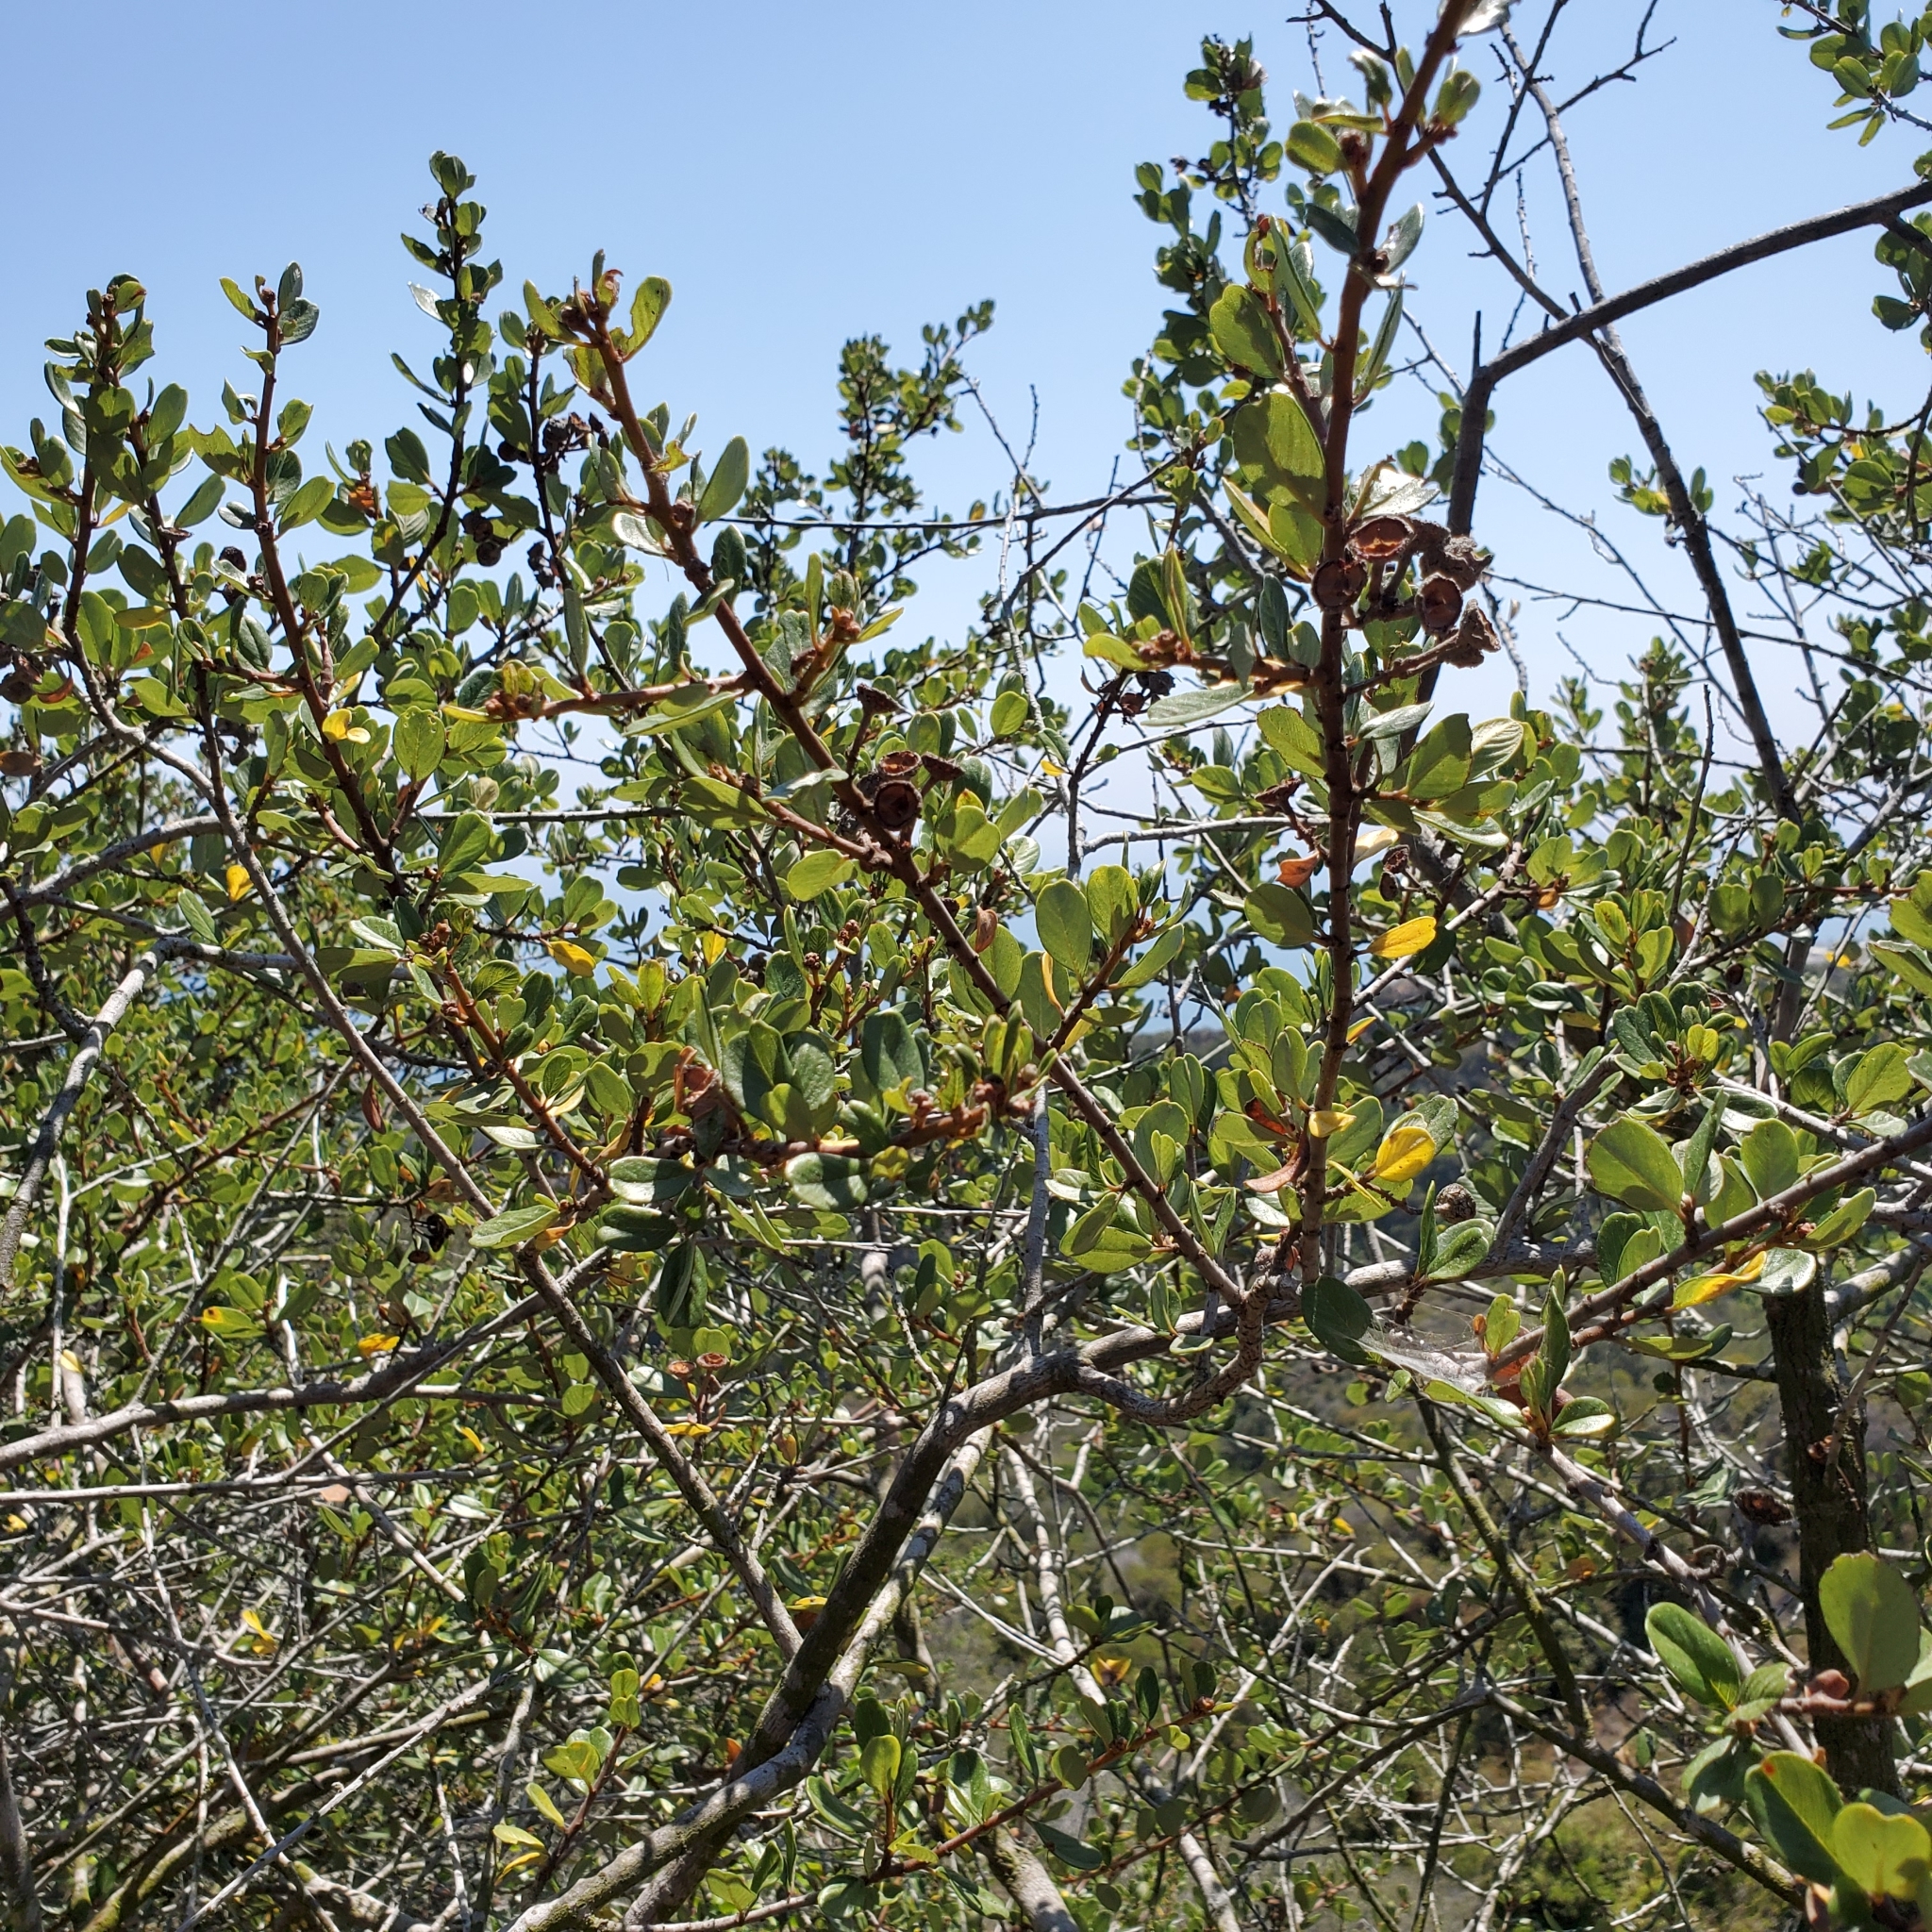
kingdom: Plantae
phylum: Tracheophyta
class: Magnoliopsida
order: Rosales
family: Rhamnaceae
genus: Ceanothus
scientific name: Ceanothus megacarpus
